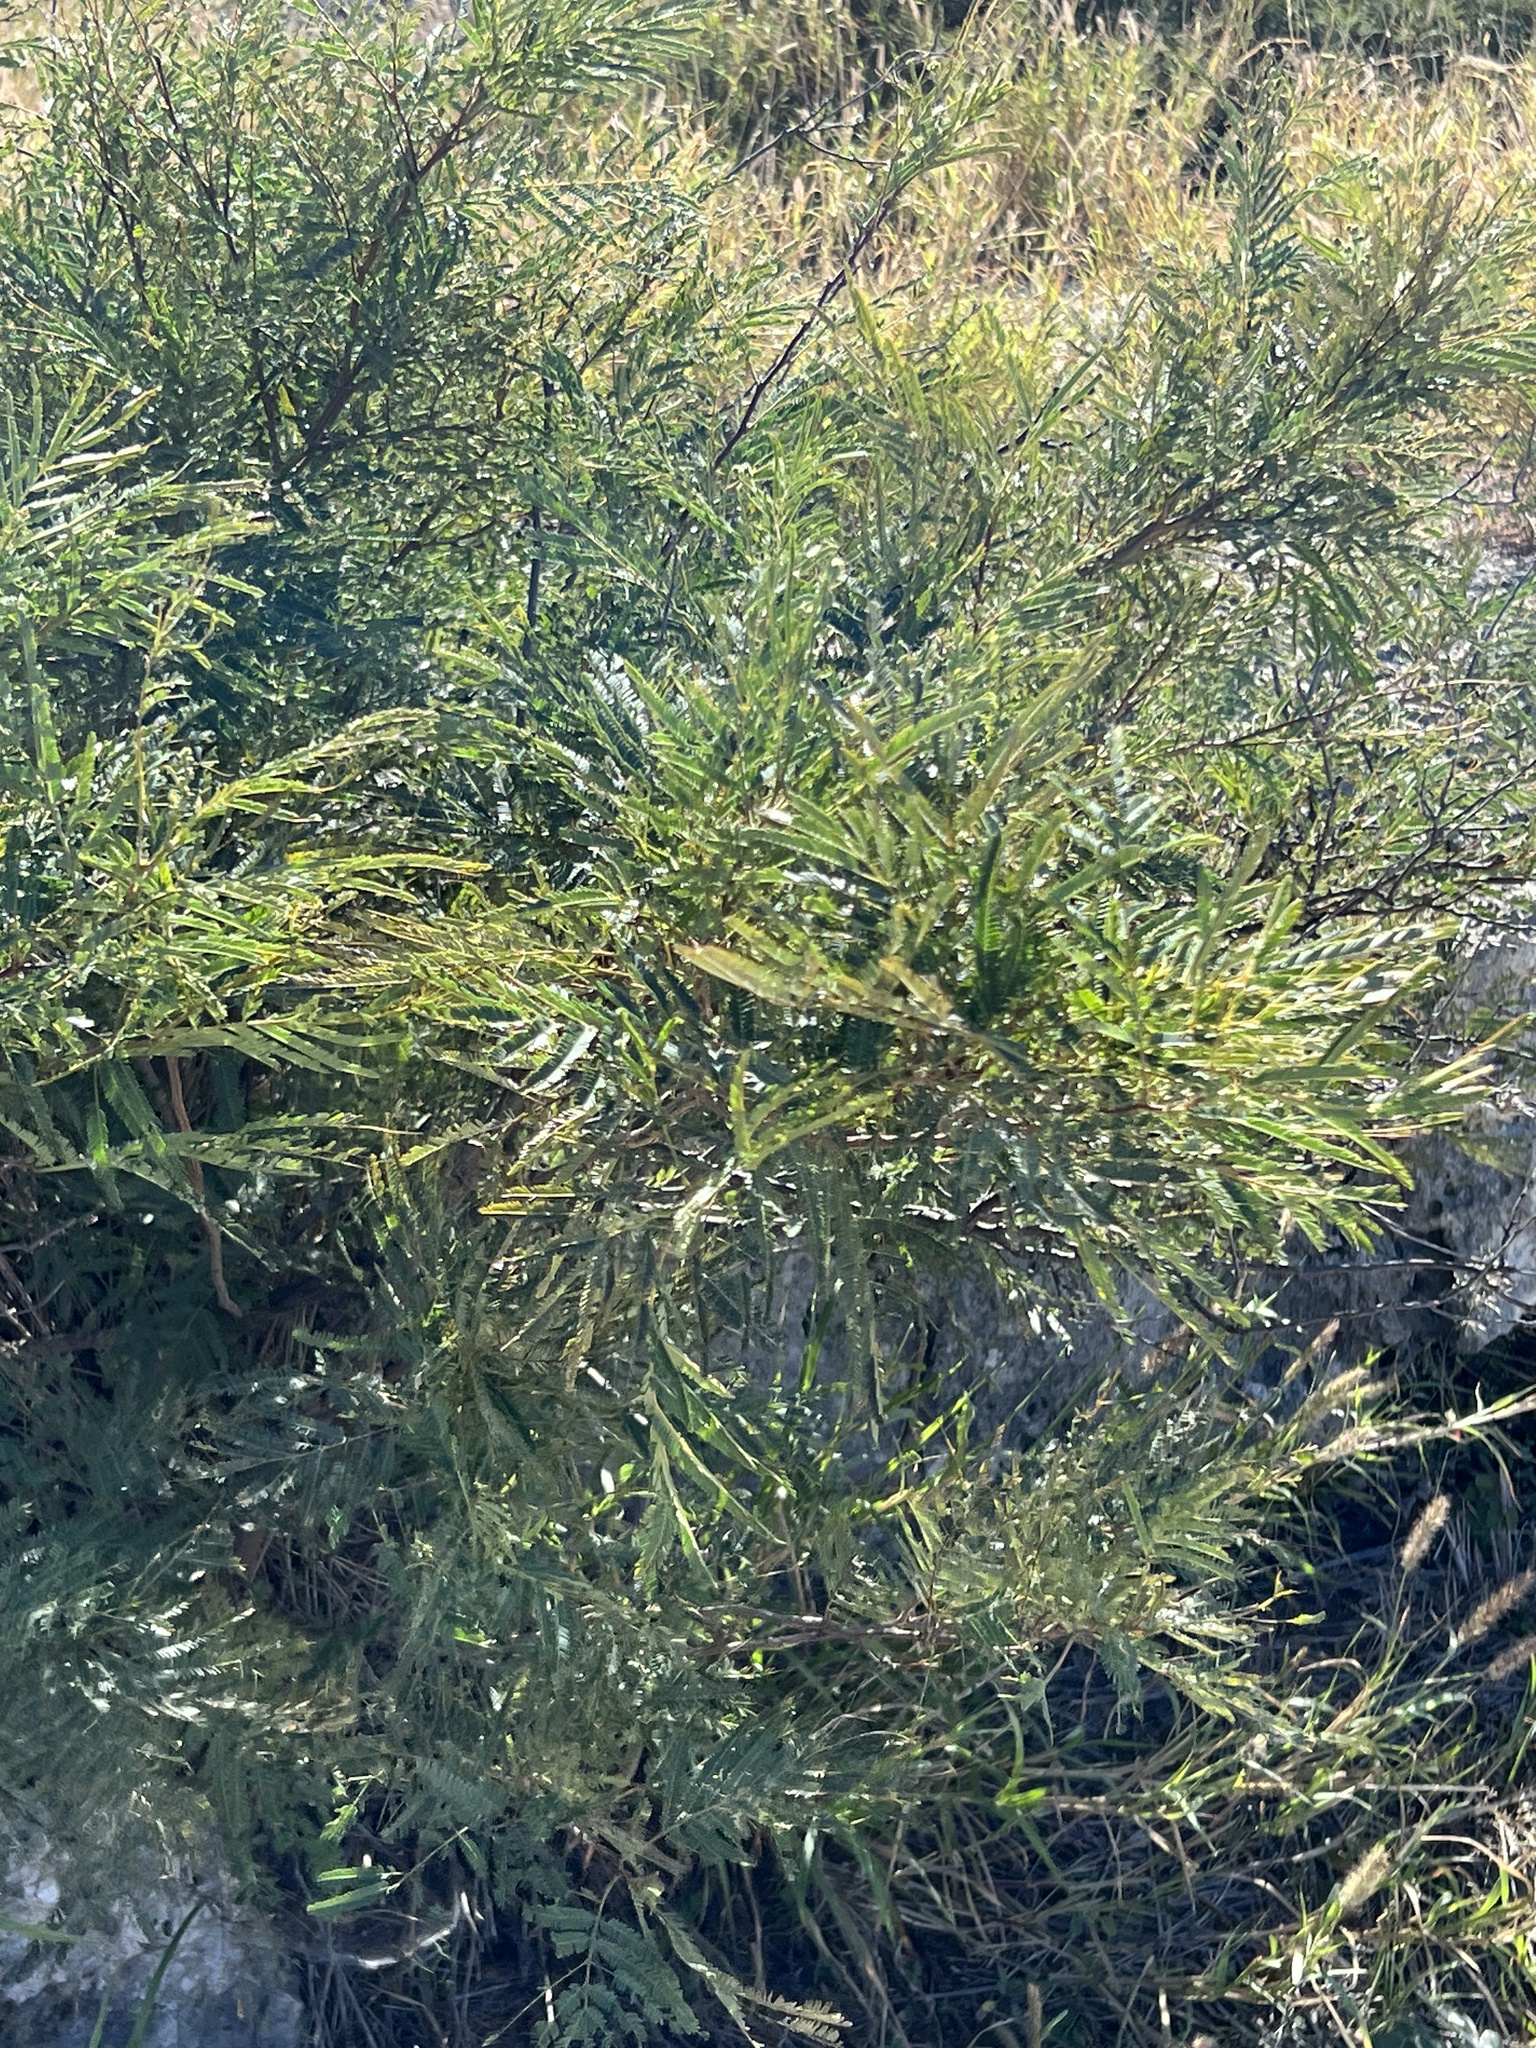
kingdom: Plantae
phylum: Tracheophyta
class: Magnoliopsida
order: Fabales
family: Fabaceae
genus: Senegalia
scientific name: Senegalia berlandieri
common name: Berlandier acacia
